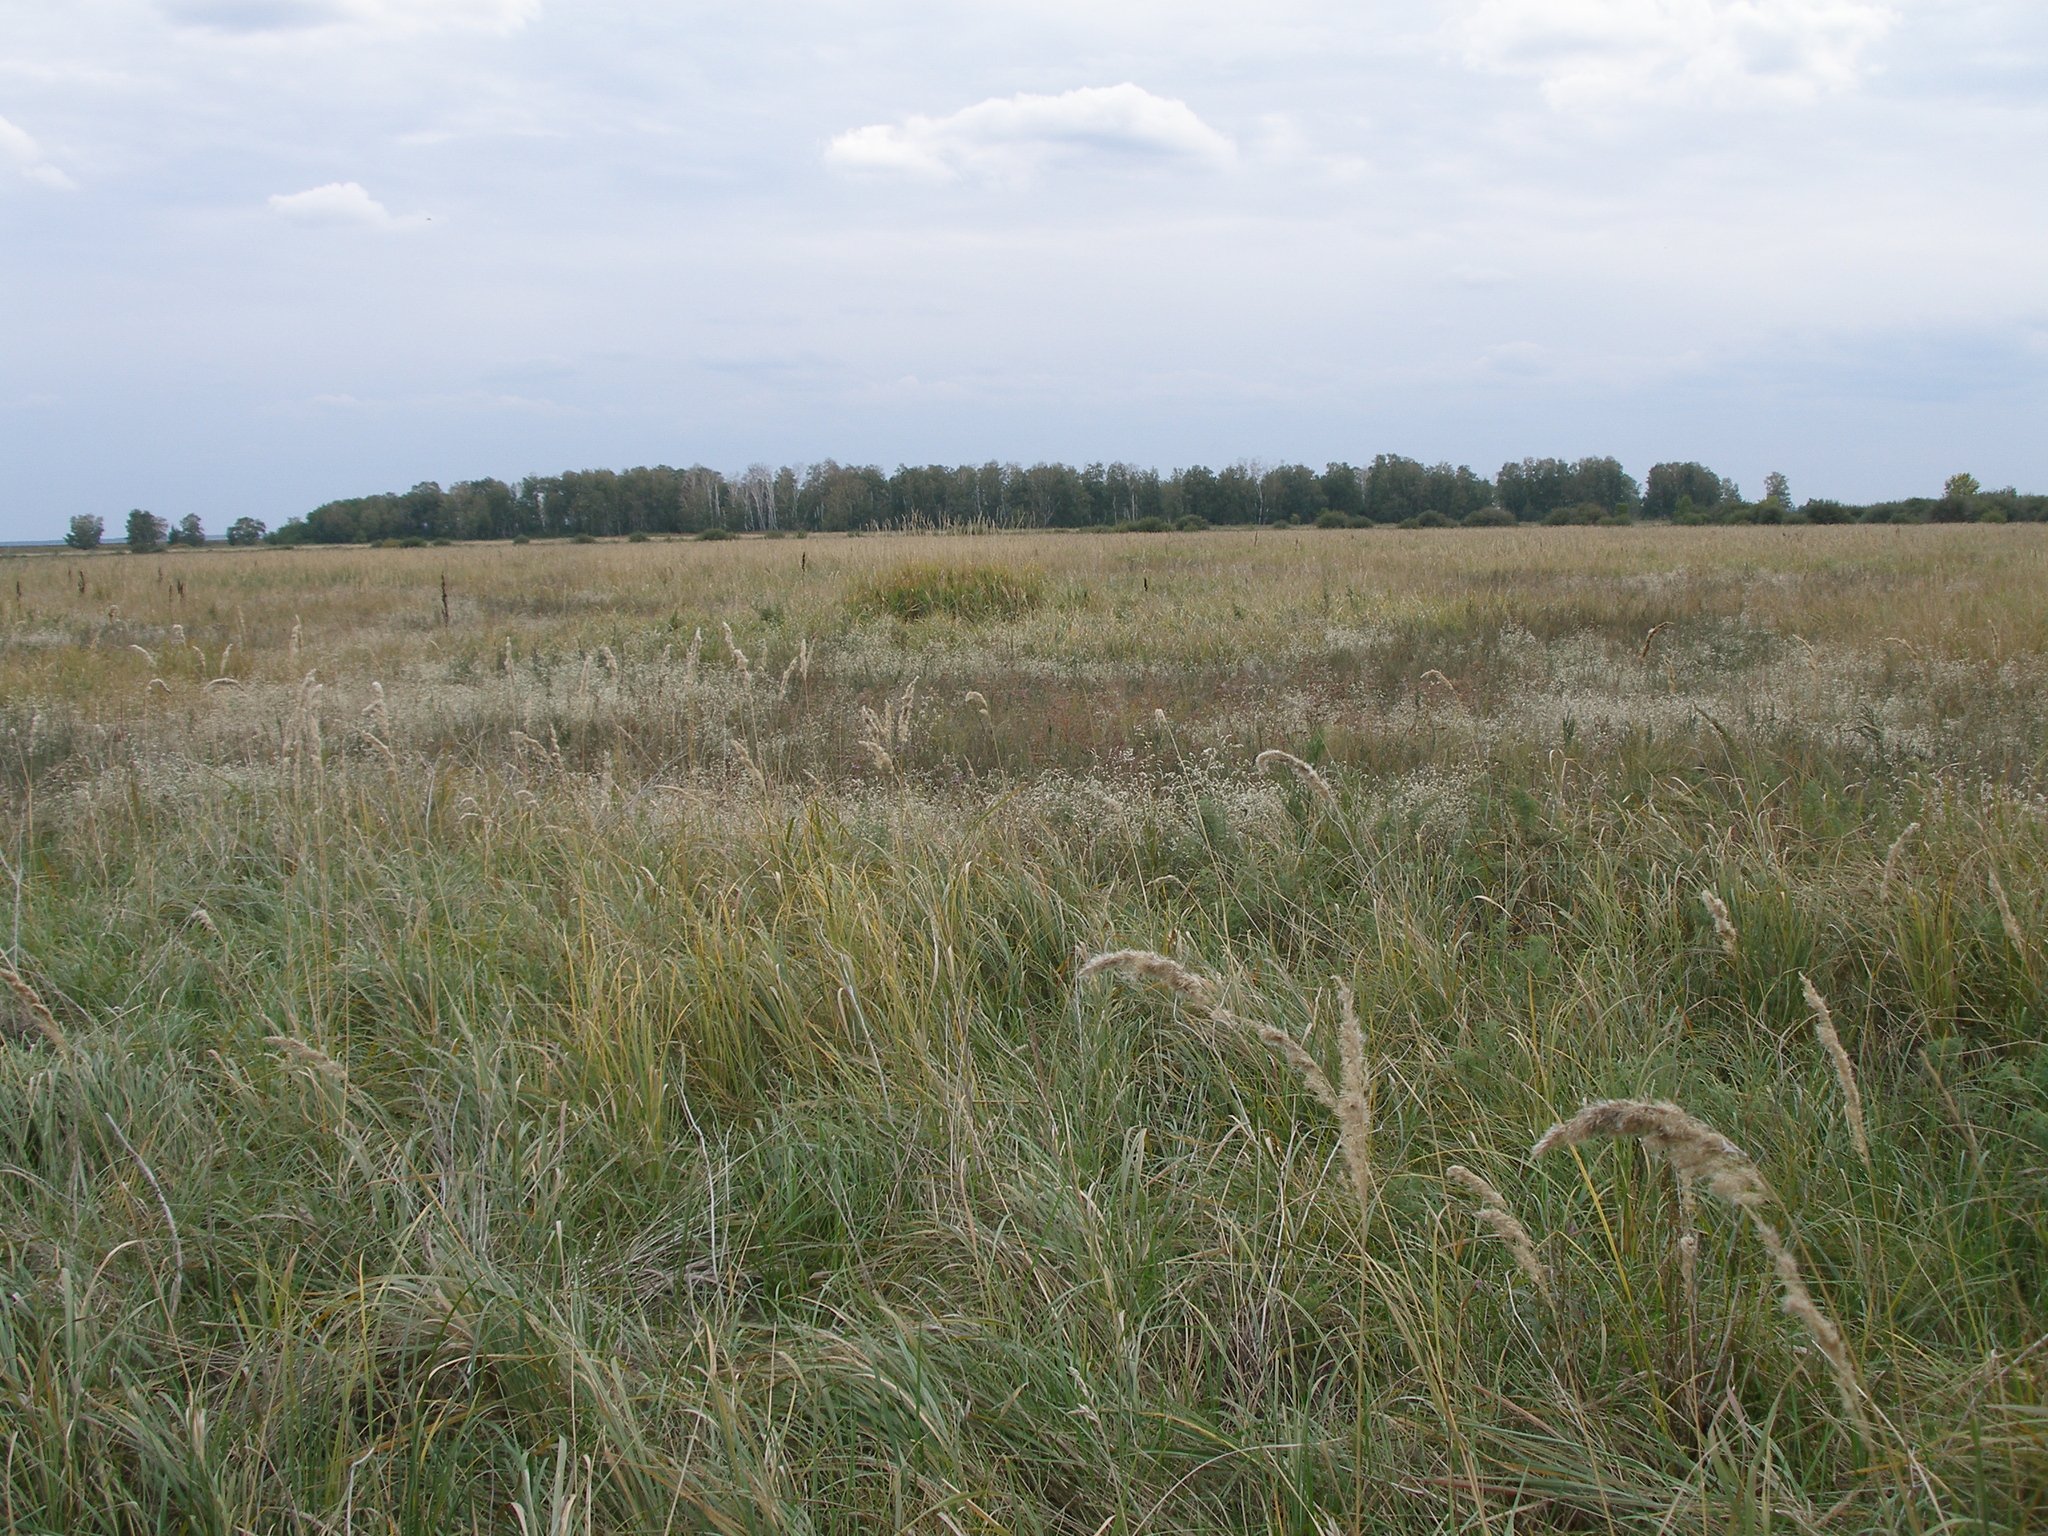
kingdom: Plantae
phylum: Tracheophyta
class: Liliopsida
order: Poales
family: Poaceae
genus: Calamagrostis
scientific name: Calamagrostis epigejos
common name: Wood small-reed
